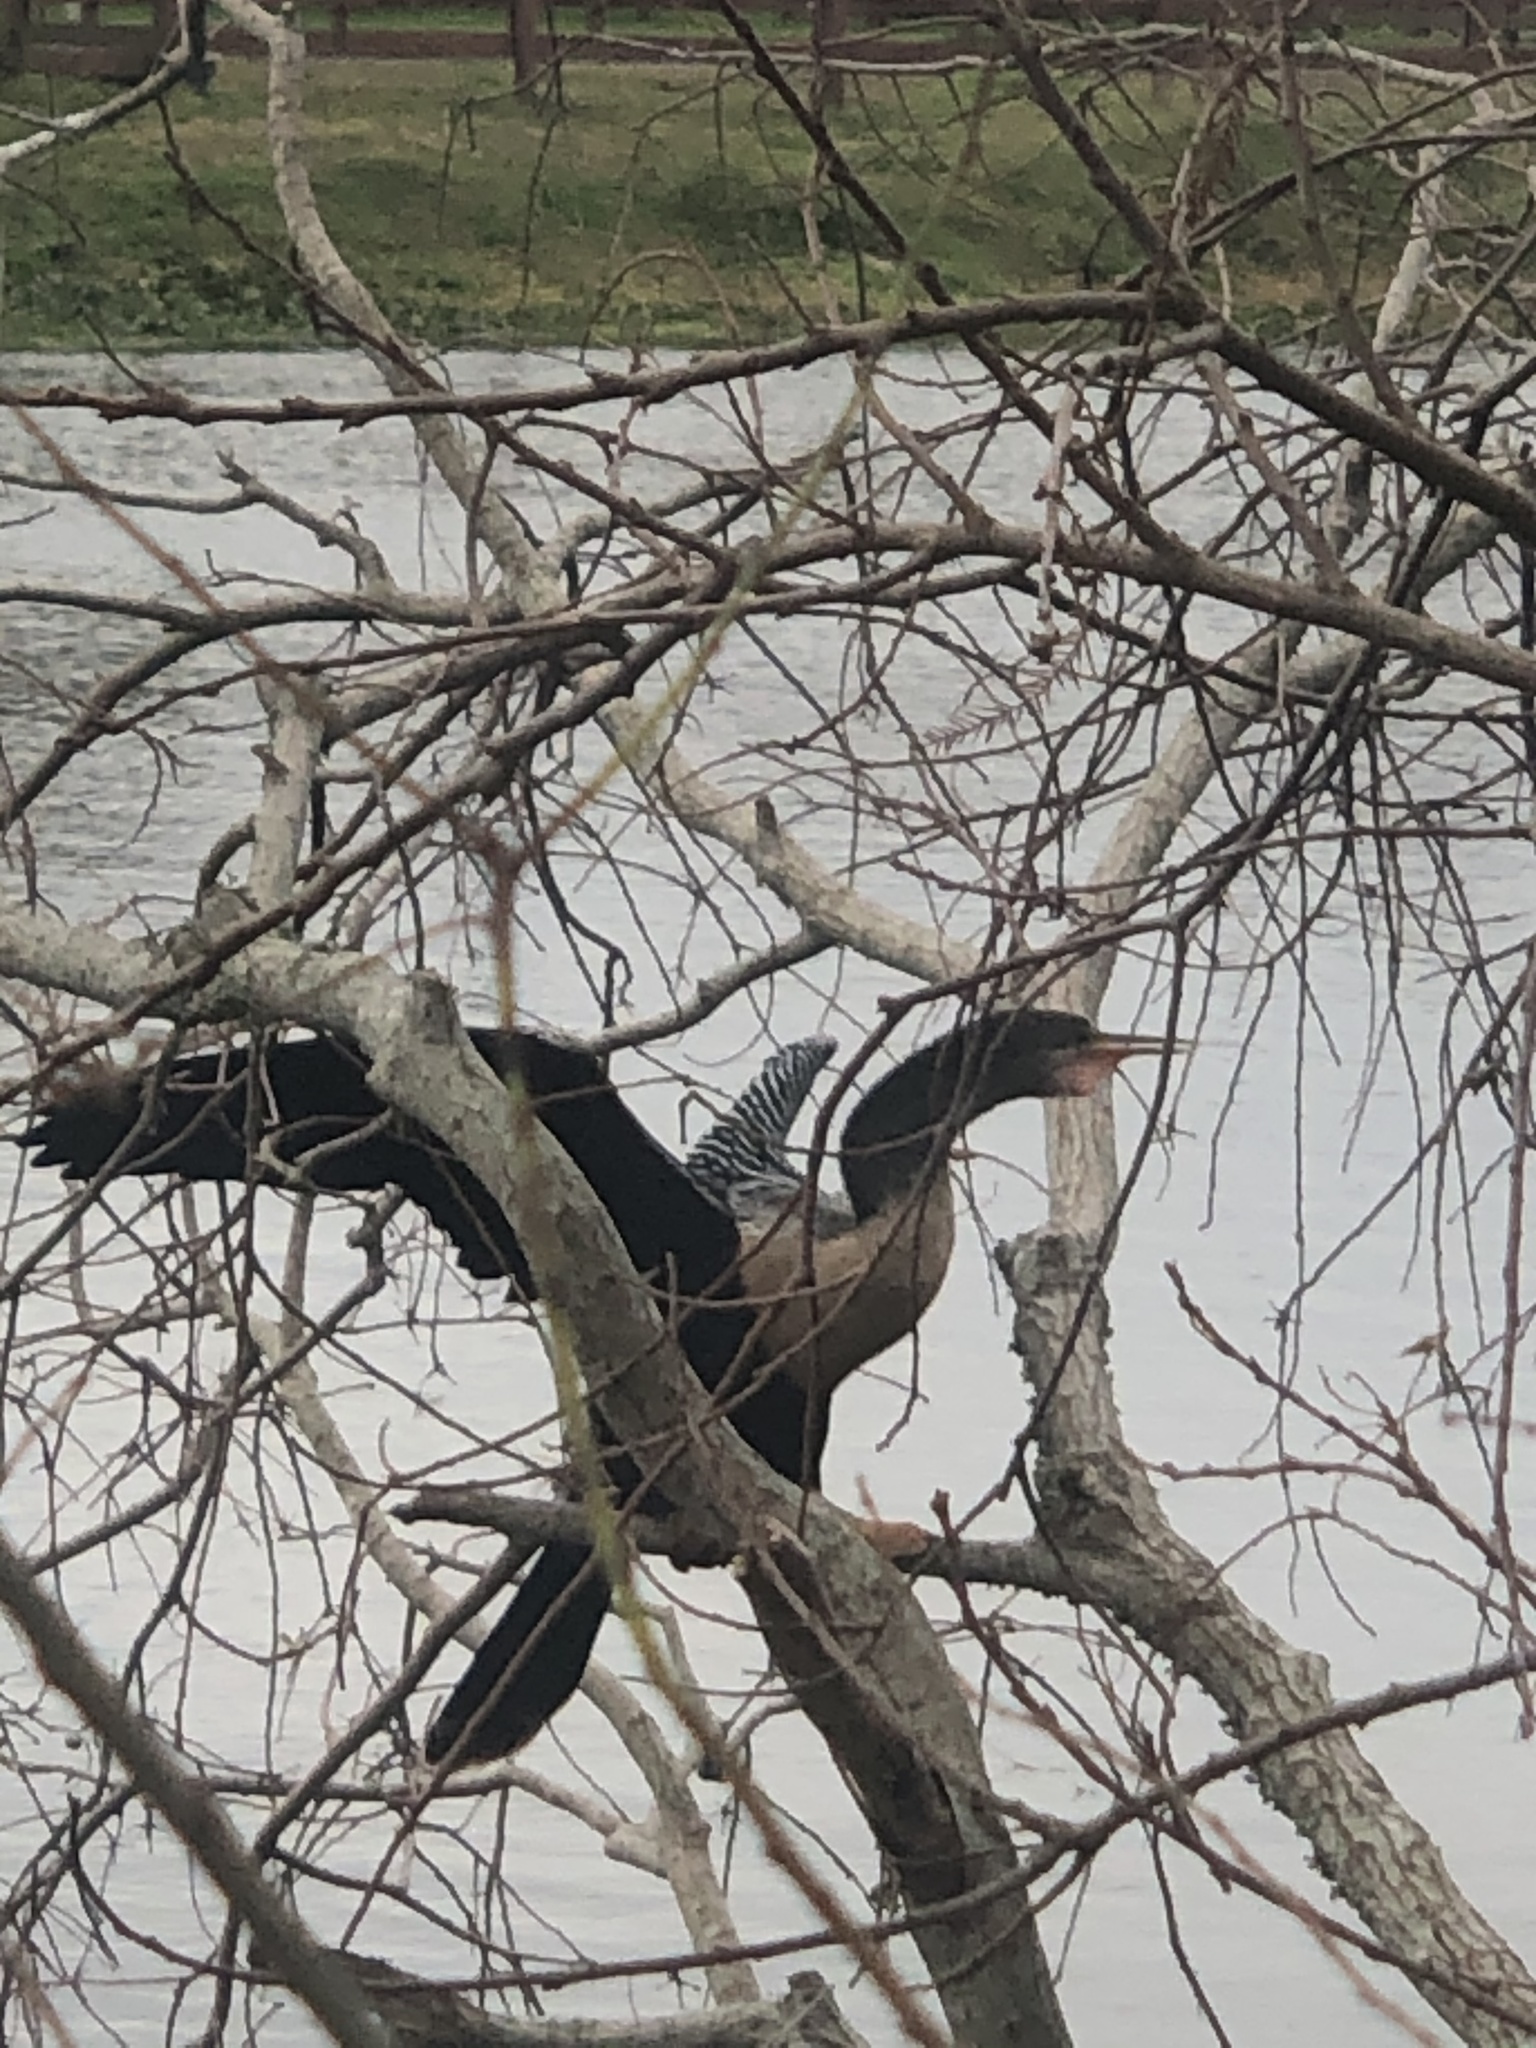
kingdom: Animalia
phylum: Chordata
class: Aves
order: Suliformes
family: Anhingidae
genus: Anhinga
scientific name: Anhinga anhinga
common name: Anhinga
